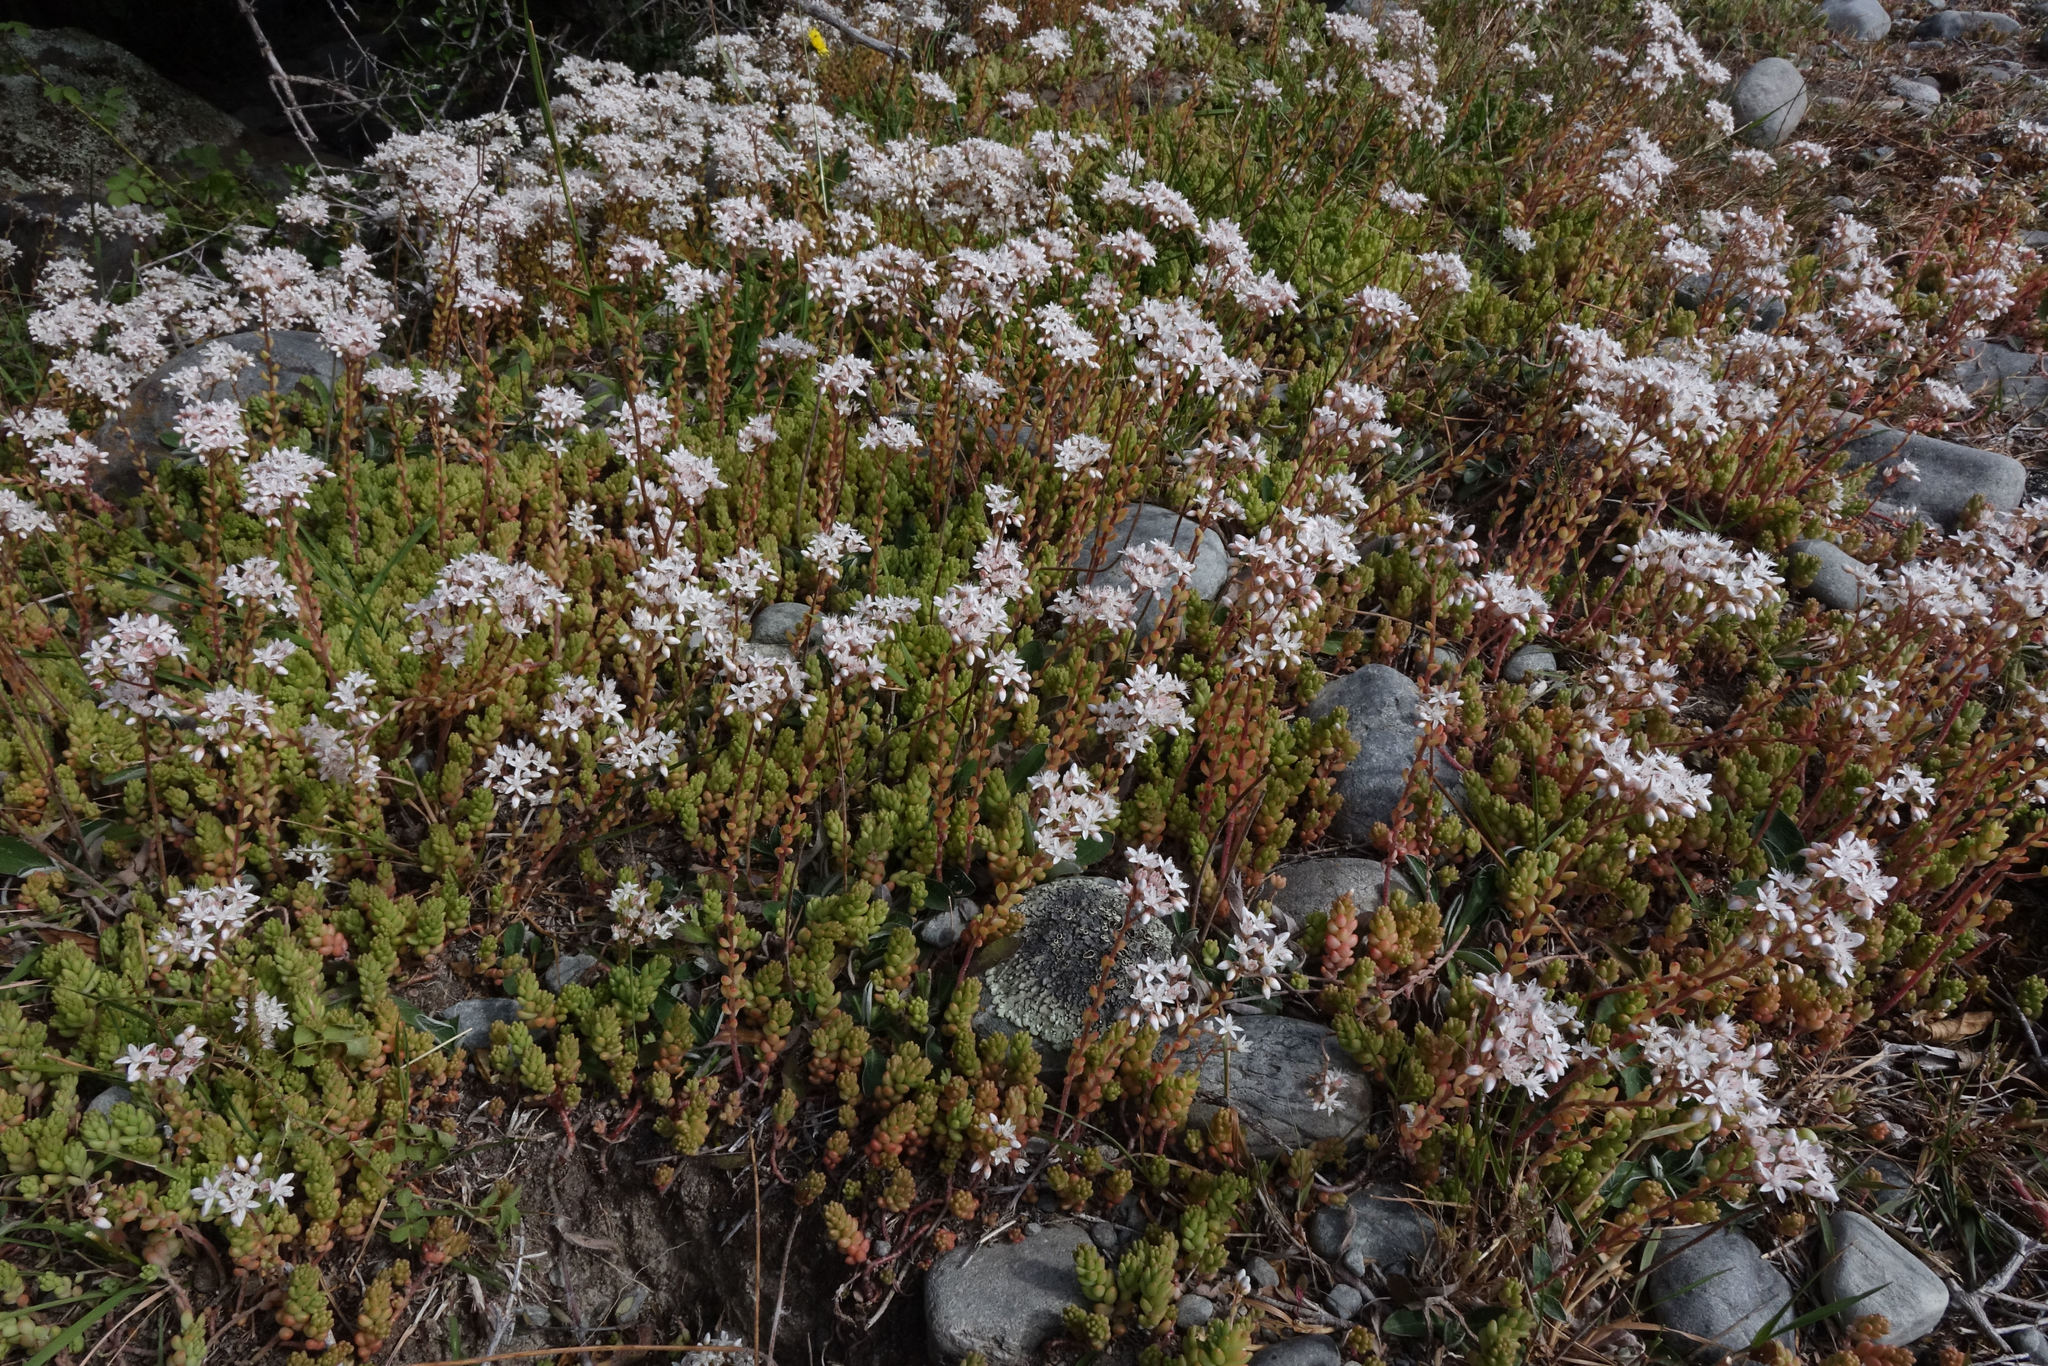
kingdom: Plantae
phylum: Tracheophyta
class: Magnoliopsida
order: Saxifragales
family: Crassulaceae
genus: Sedum
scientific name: Sedum album
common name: White stonecrop
